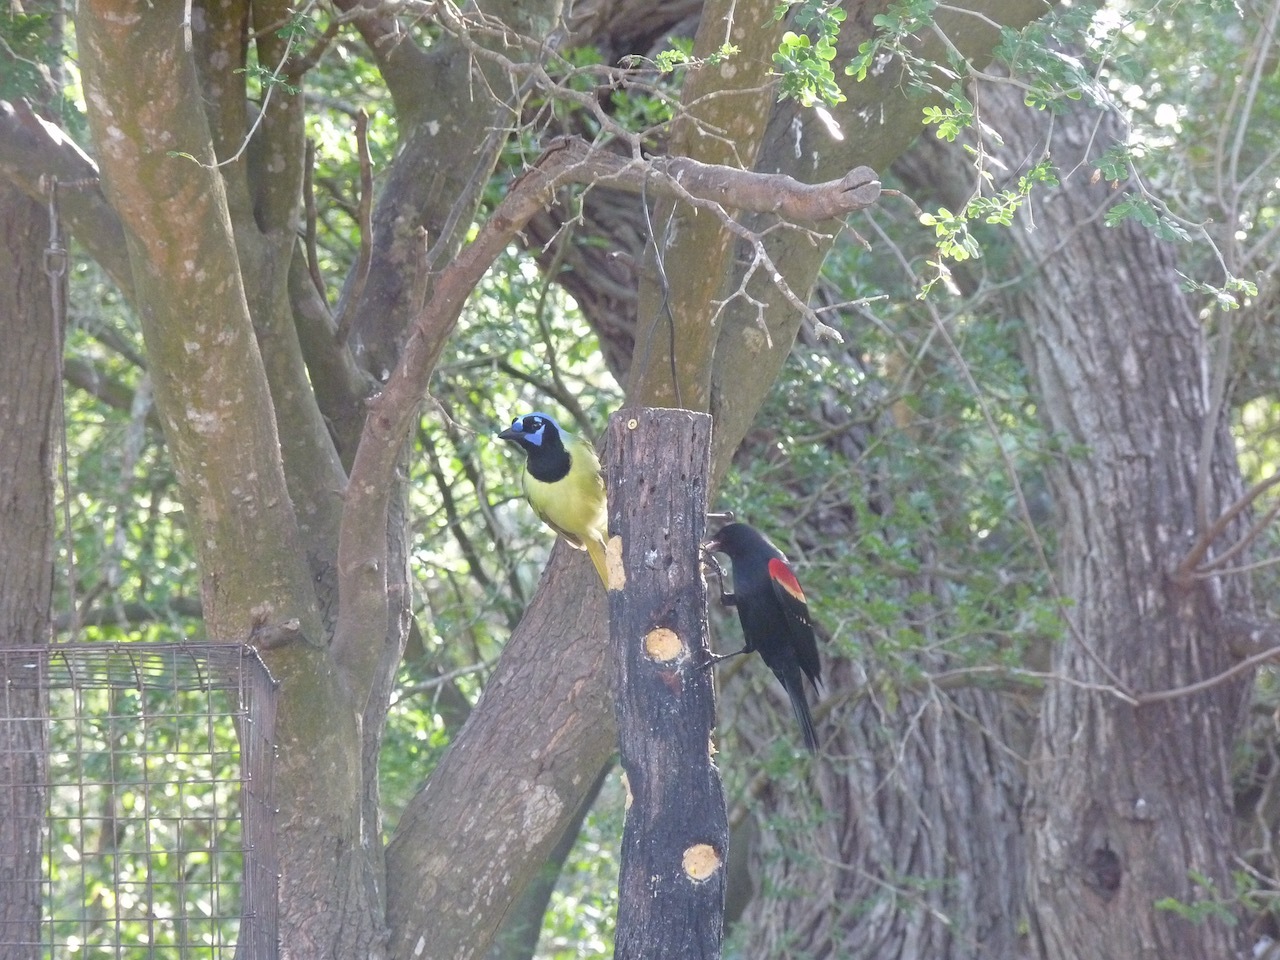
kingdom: Animalia
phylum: Chordata
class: Aves
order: Passeriformes
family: Corvidae
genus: Cyanocorax
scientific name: Cyanocorax yncas
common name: Green jay
